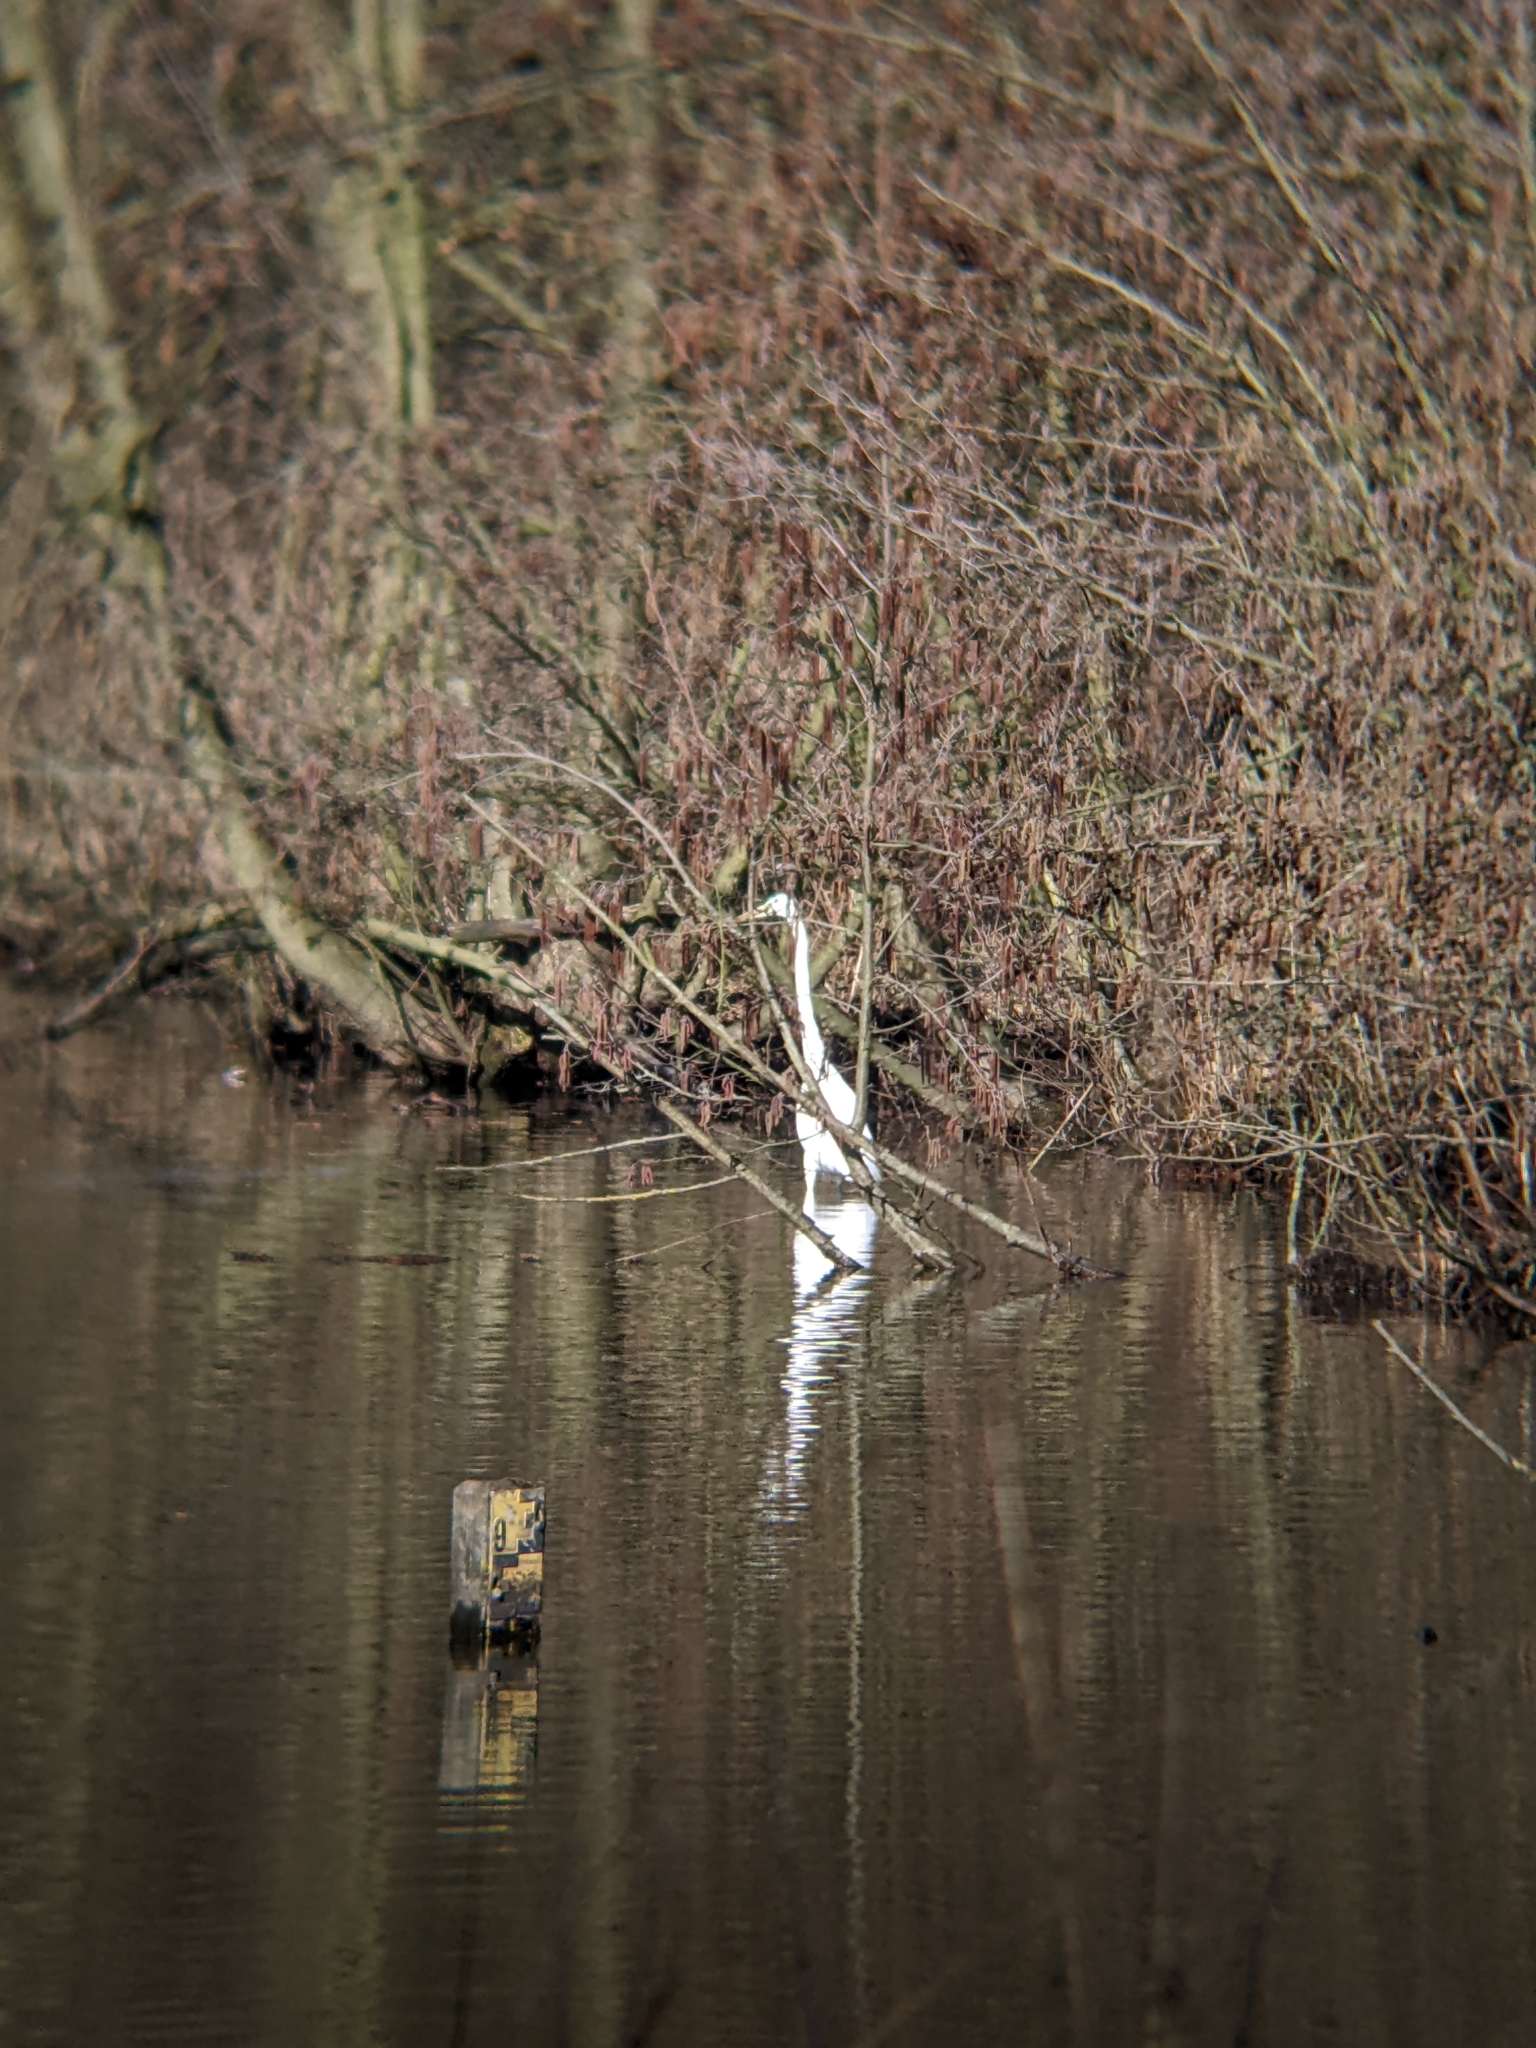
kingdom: Animalia
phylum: Chordata
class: Aves
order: Pelecaniformes
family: Ardeidae
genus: Ardea
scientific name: Ardea alba
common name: Great egret
